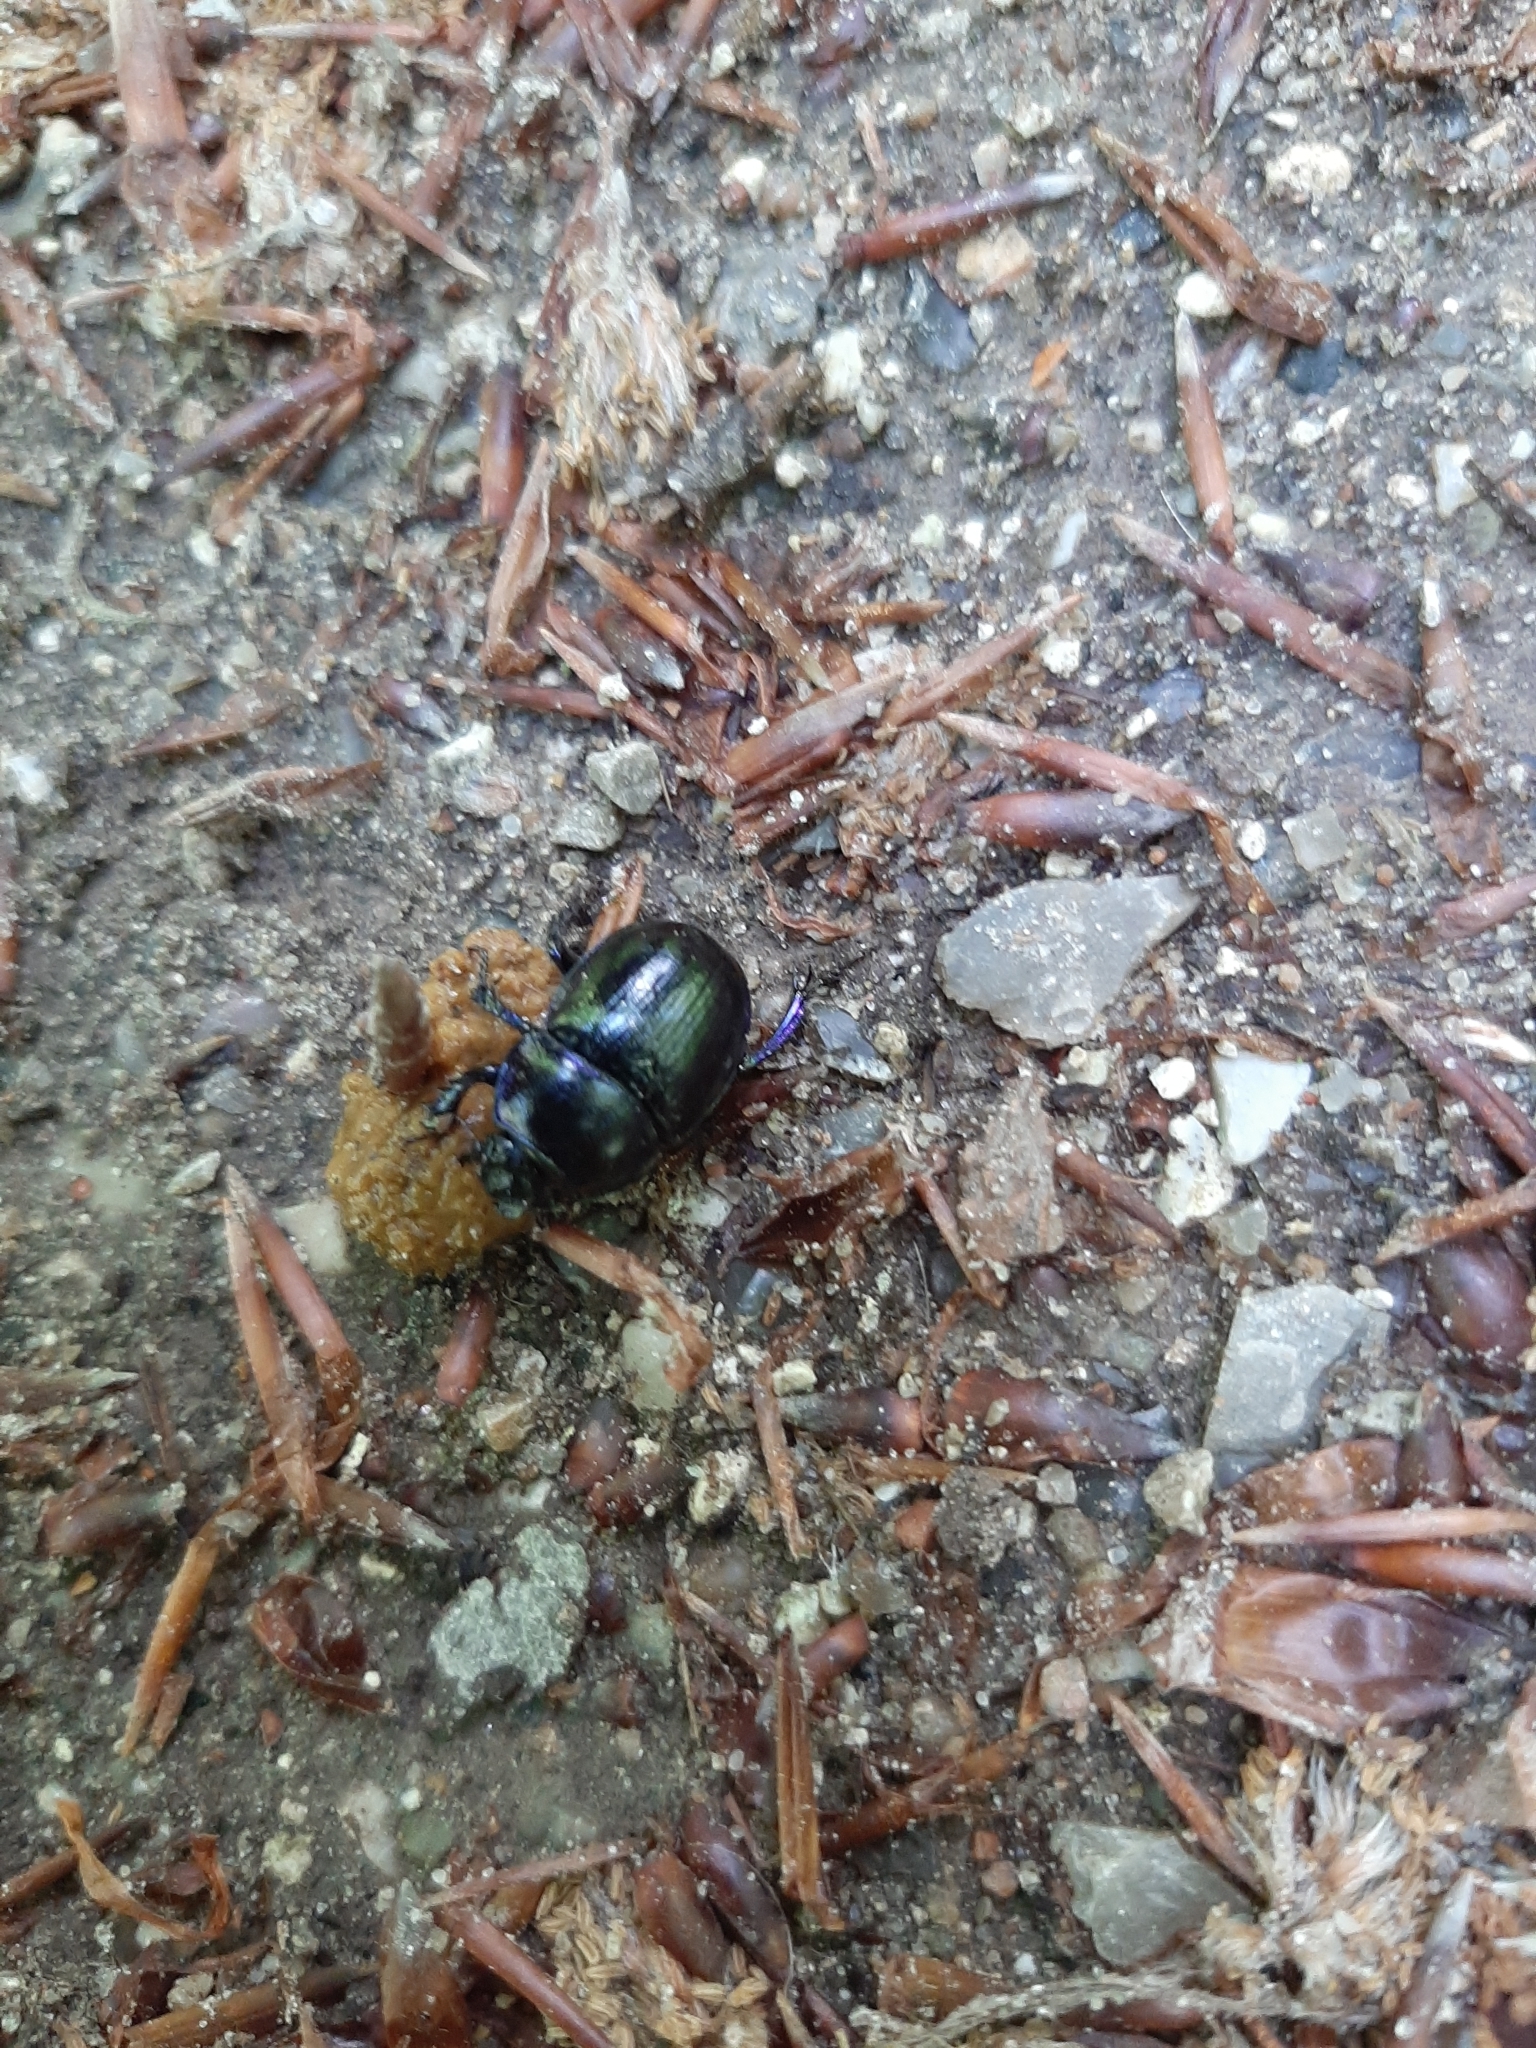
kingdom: Animalia
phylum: Arthropoda
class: Insecta
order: Coleoptera
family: Geotrupidae
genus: Anoplotrupes
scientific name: Anoplotrupes stercorosus
